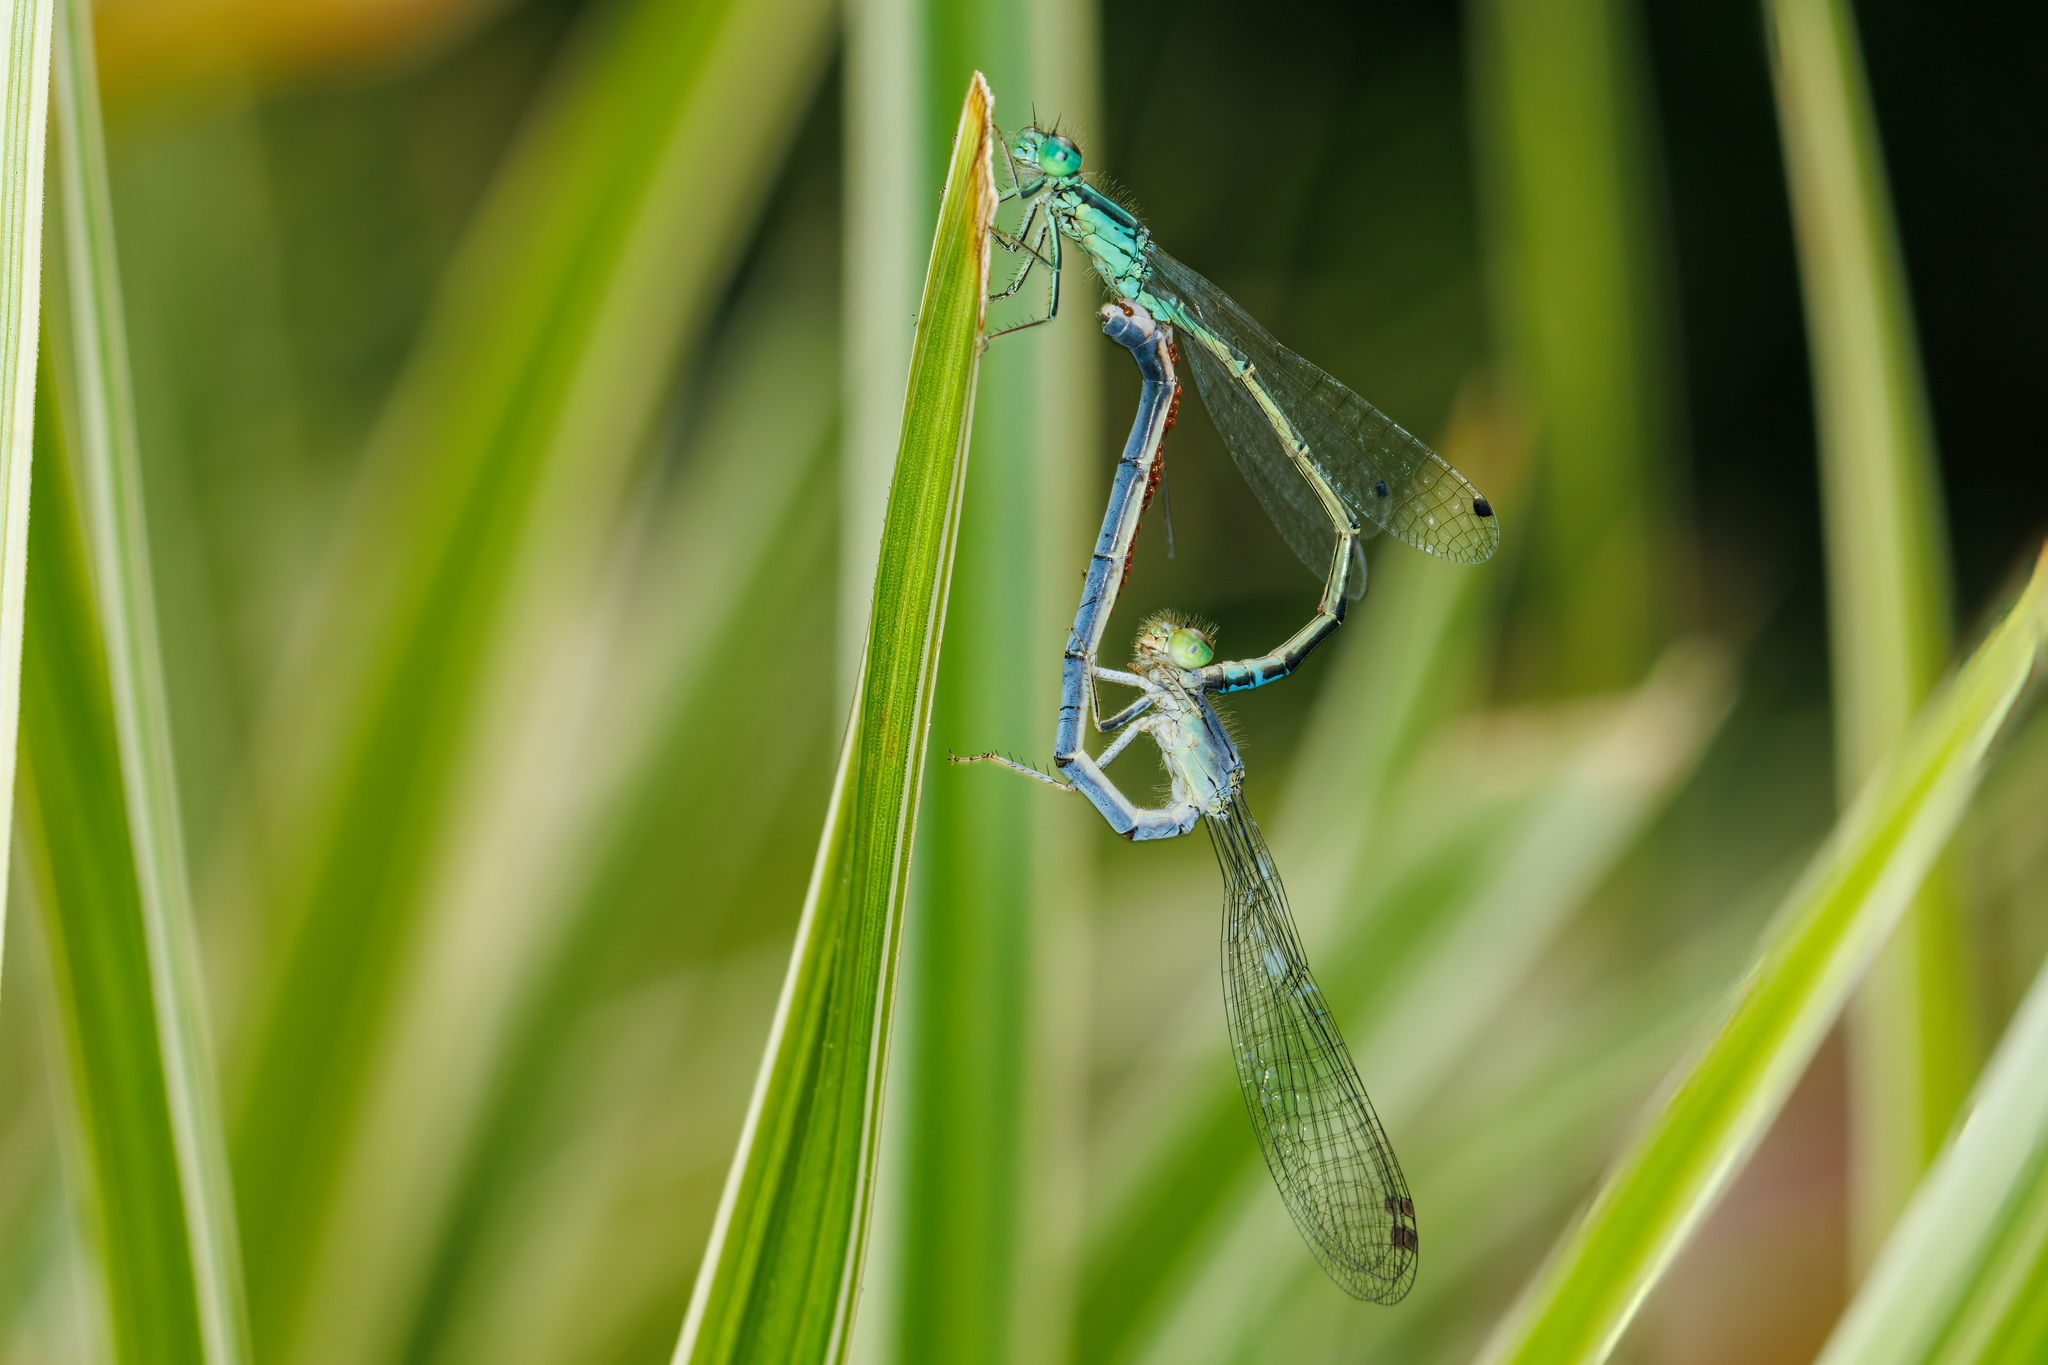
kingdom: Animalia
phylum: Arthropoda
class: Insecta
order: Odonata
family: Coenagrionidae
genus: Ischnura
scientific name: Ischnura perparva
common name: Western forktail
